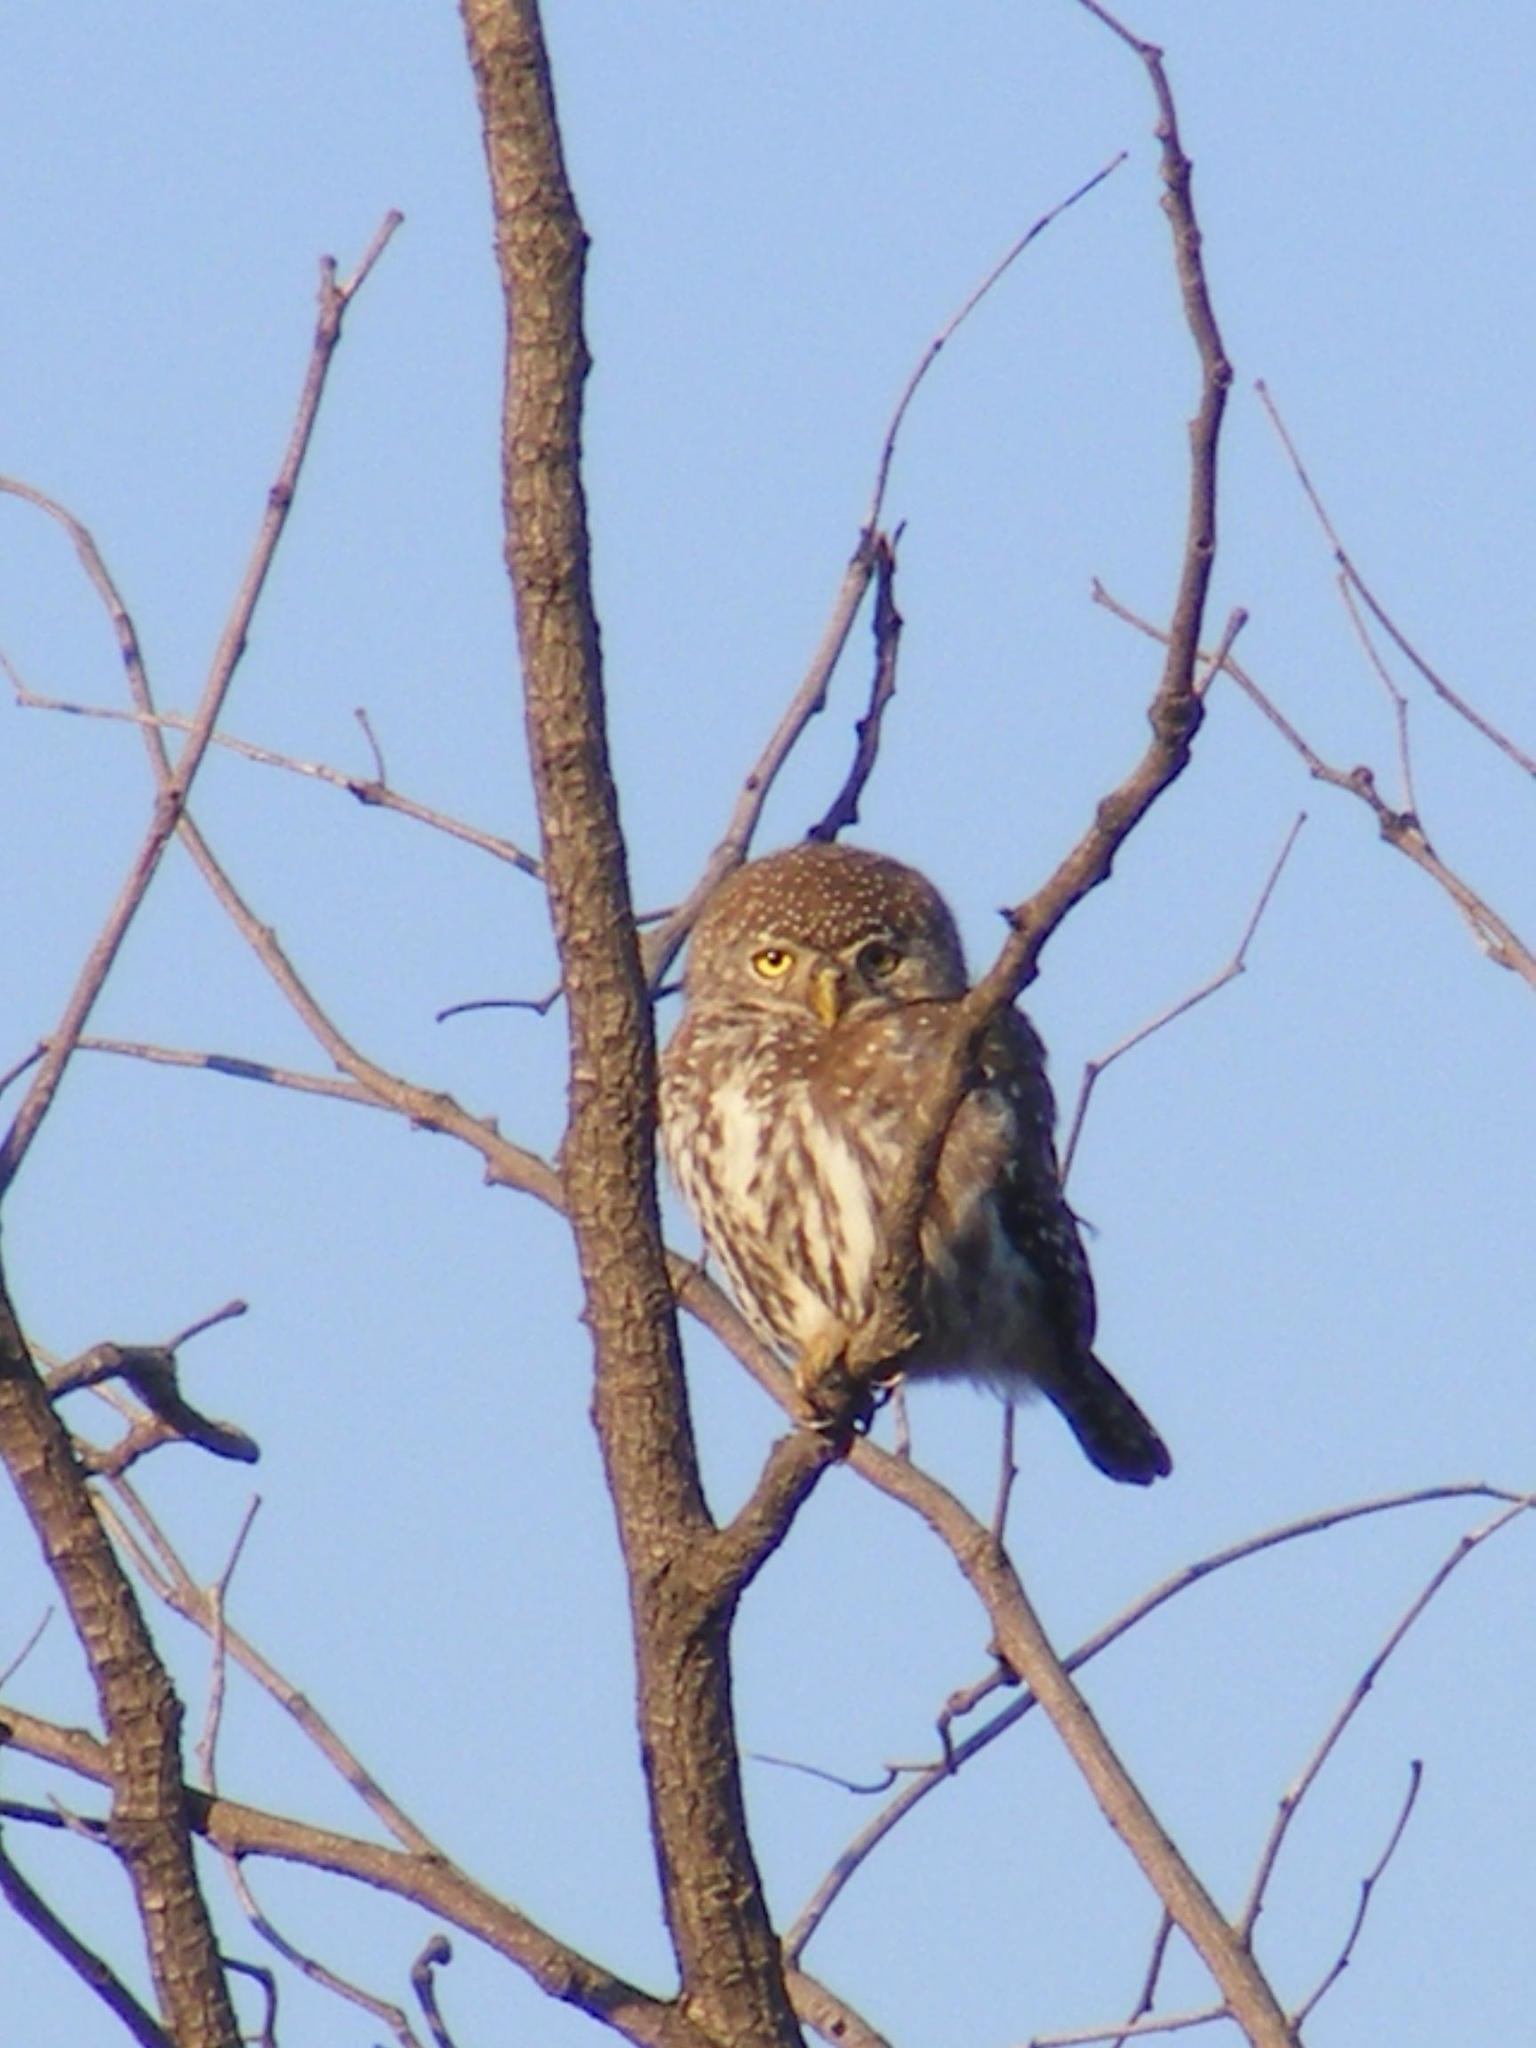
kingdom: Animalia
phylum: Chordata
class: Aves
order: Strigiformes
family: Strigidae
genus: Glaucidium
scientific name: Glaucidium perlatum
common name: Pearl-spotted owlet
